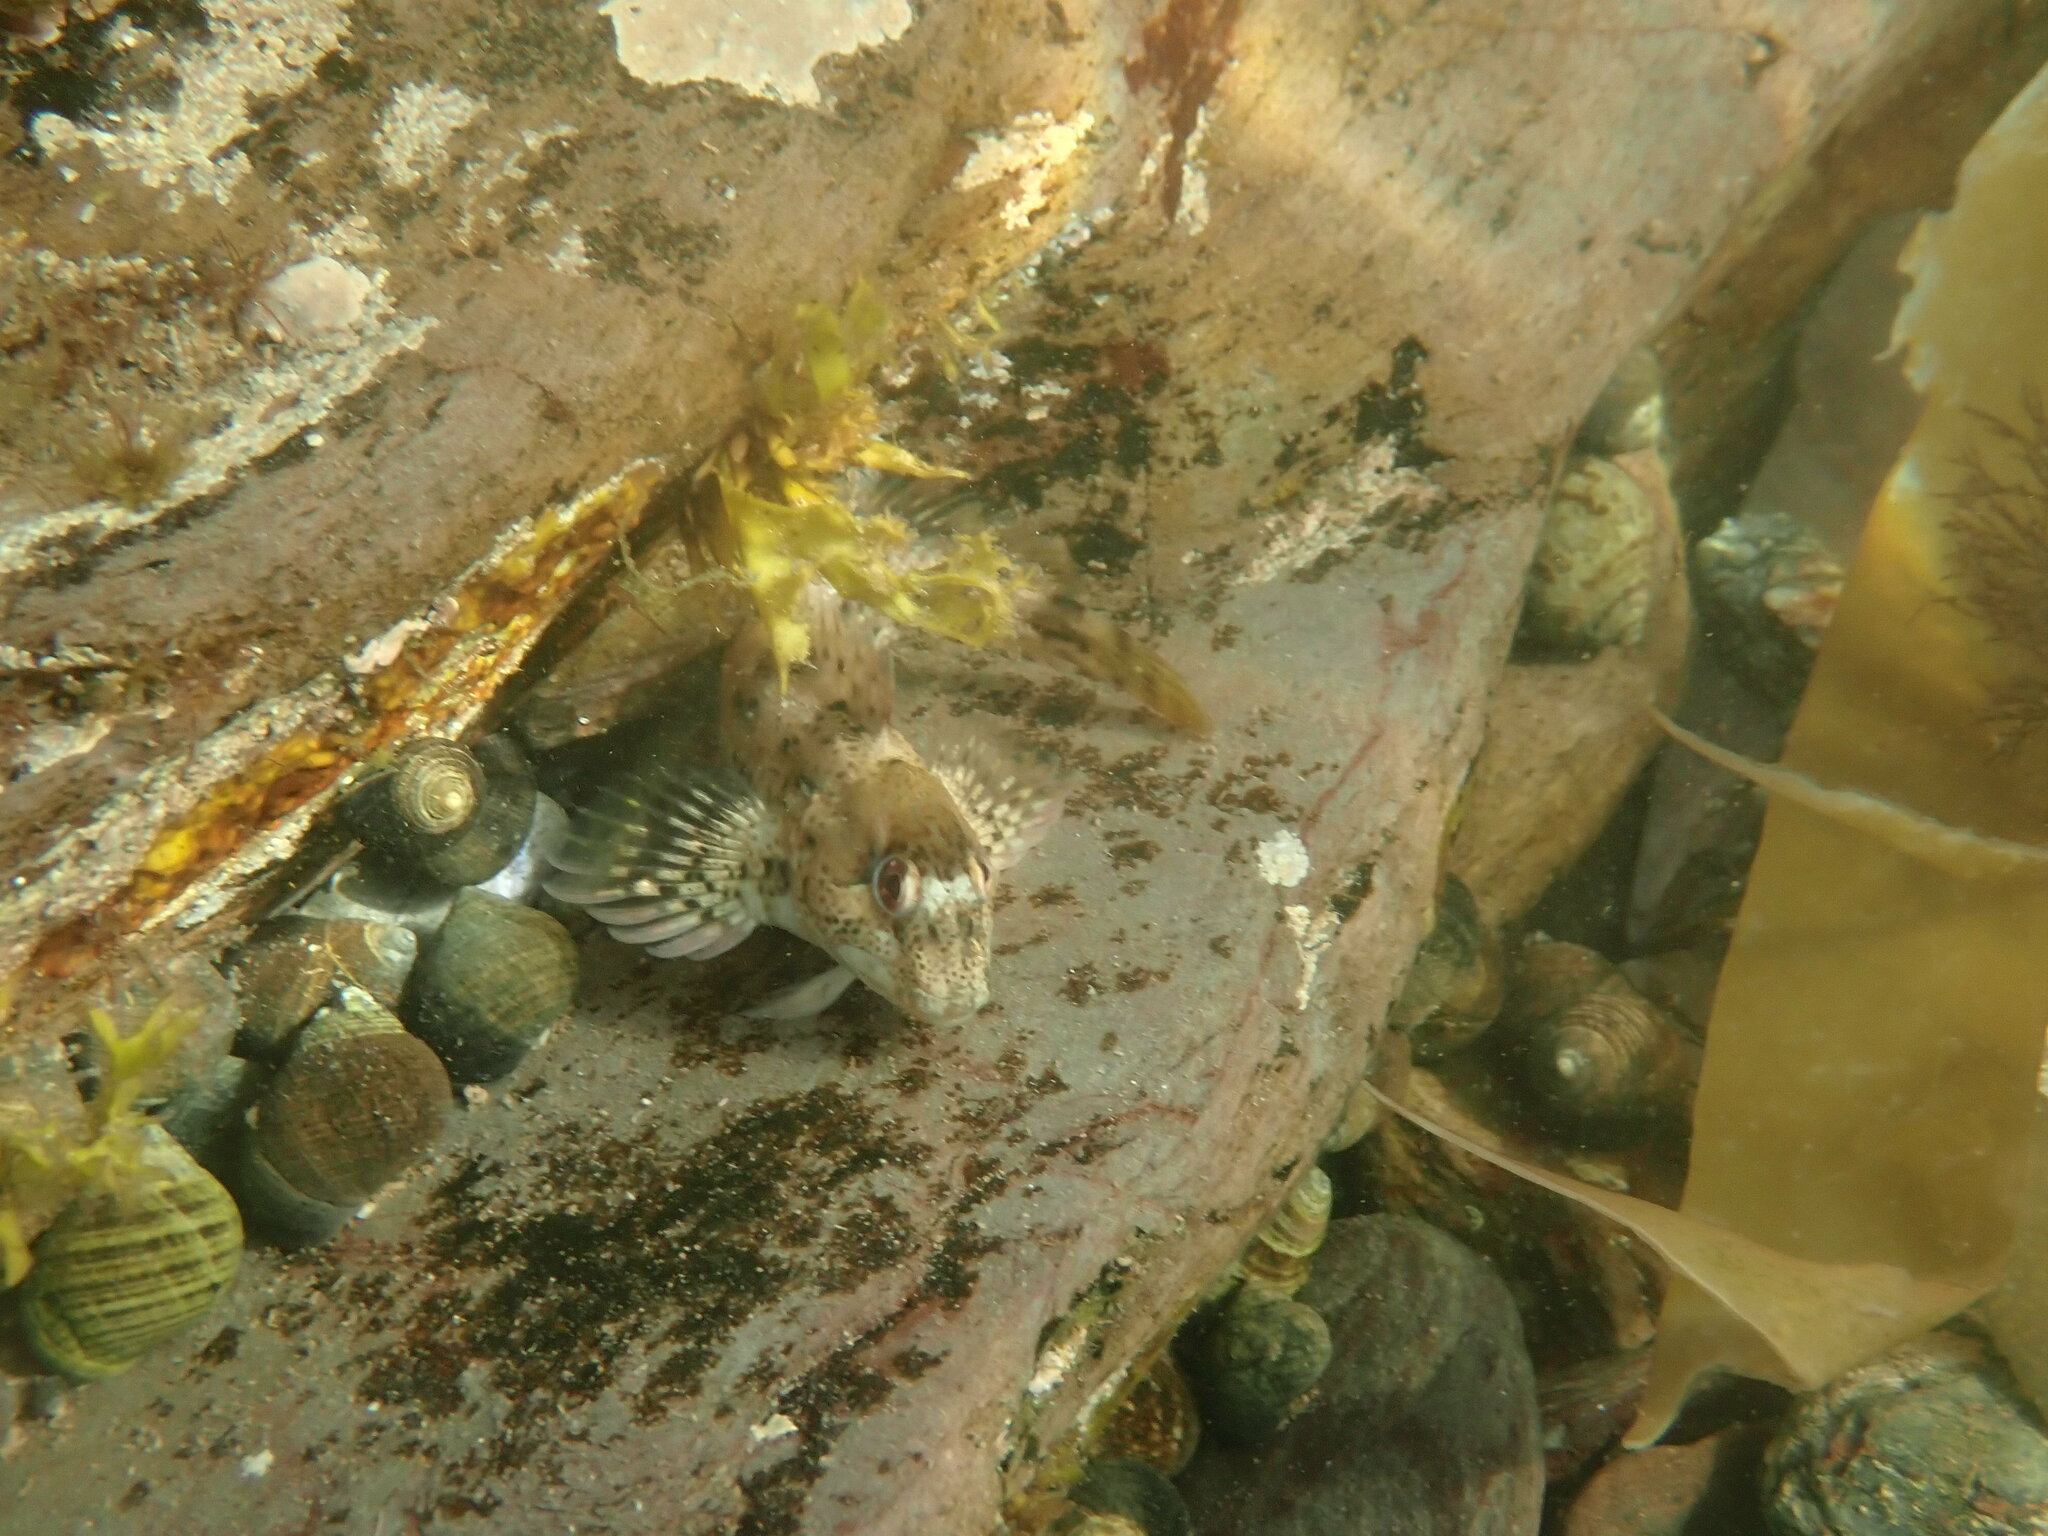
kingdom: Animalia
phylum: Chordata
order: Perciformes
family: Blenniidae
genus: Lipophrys
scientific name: Lipophrys pholis
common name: Shanny
